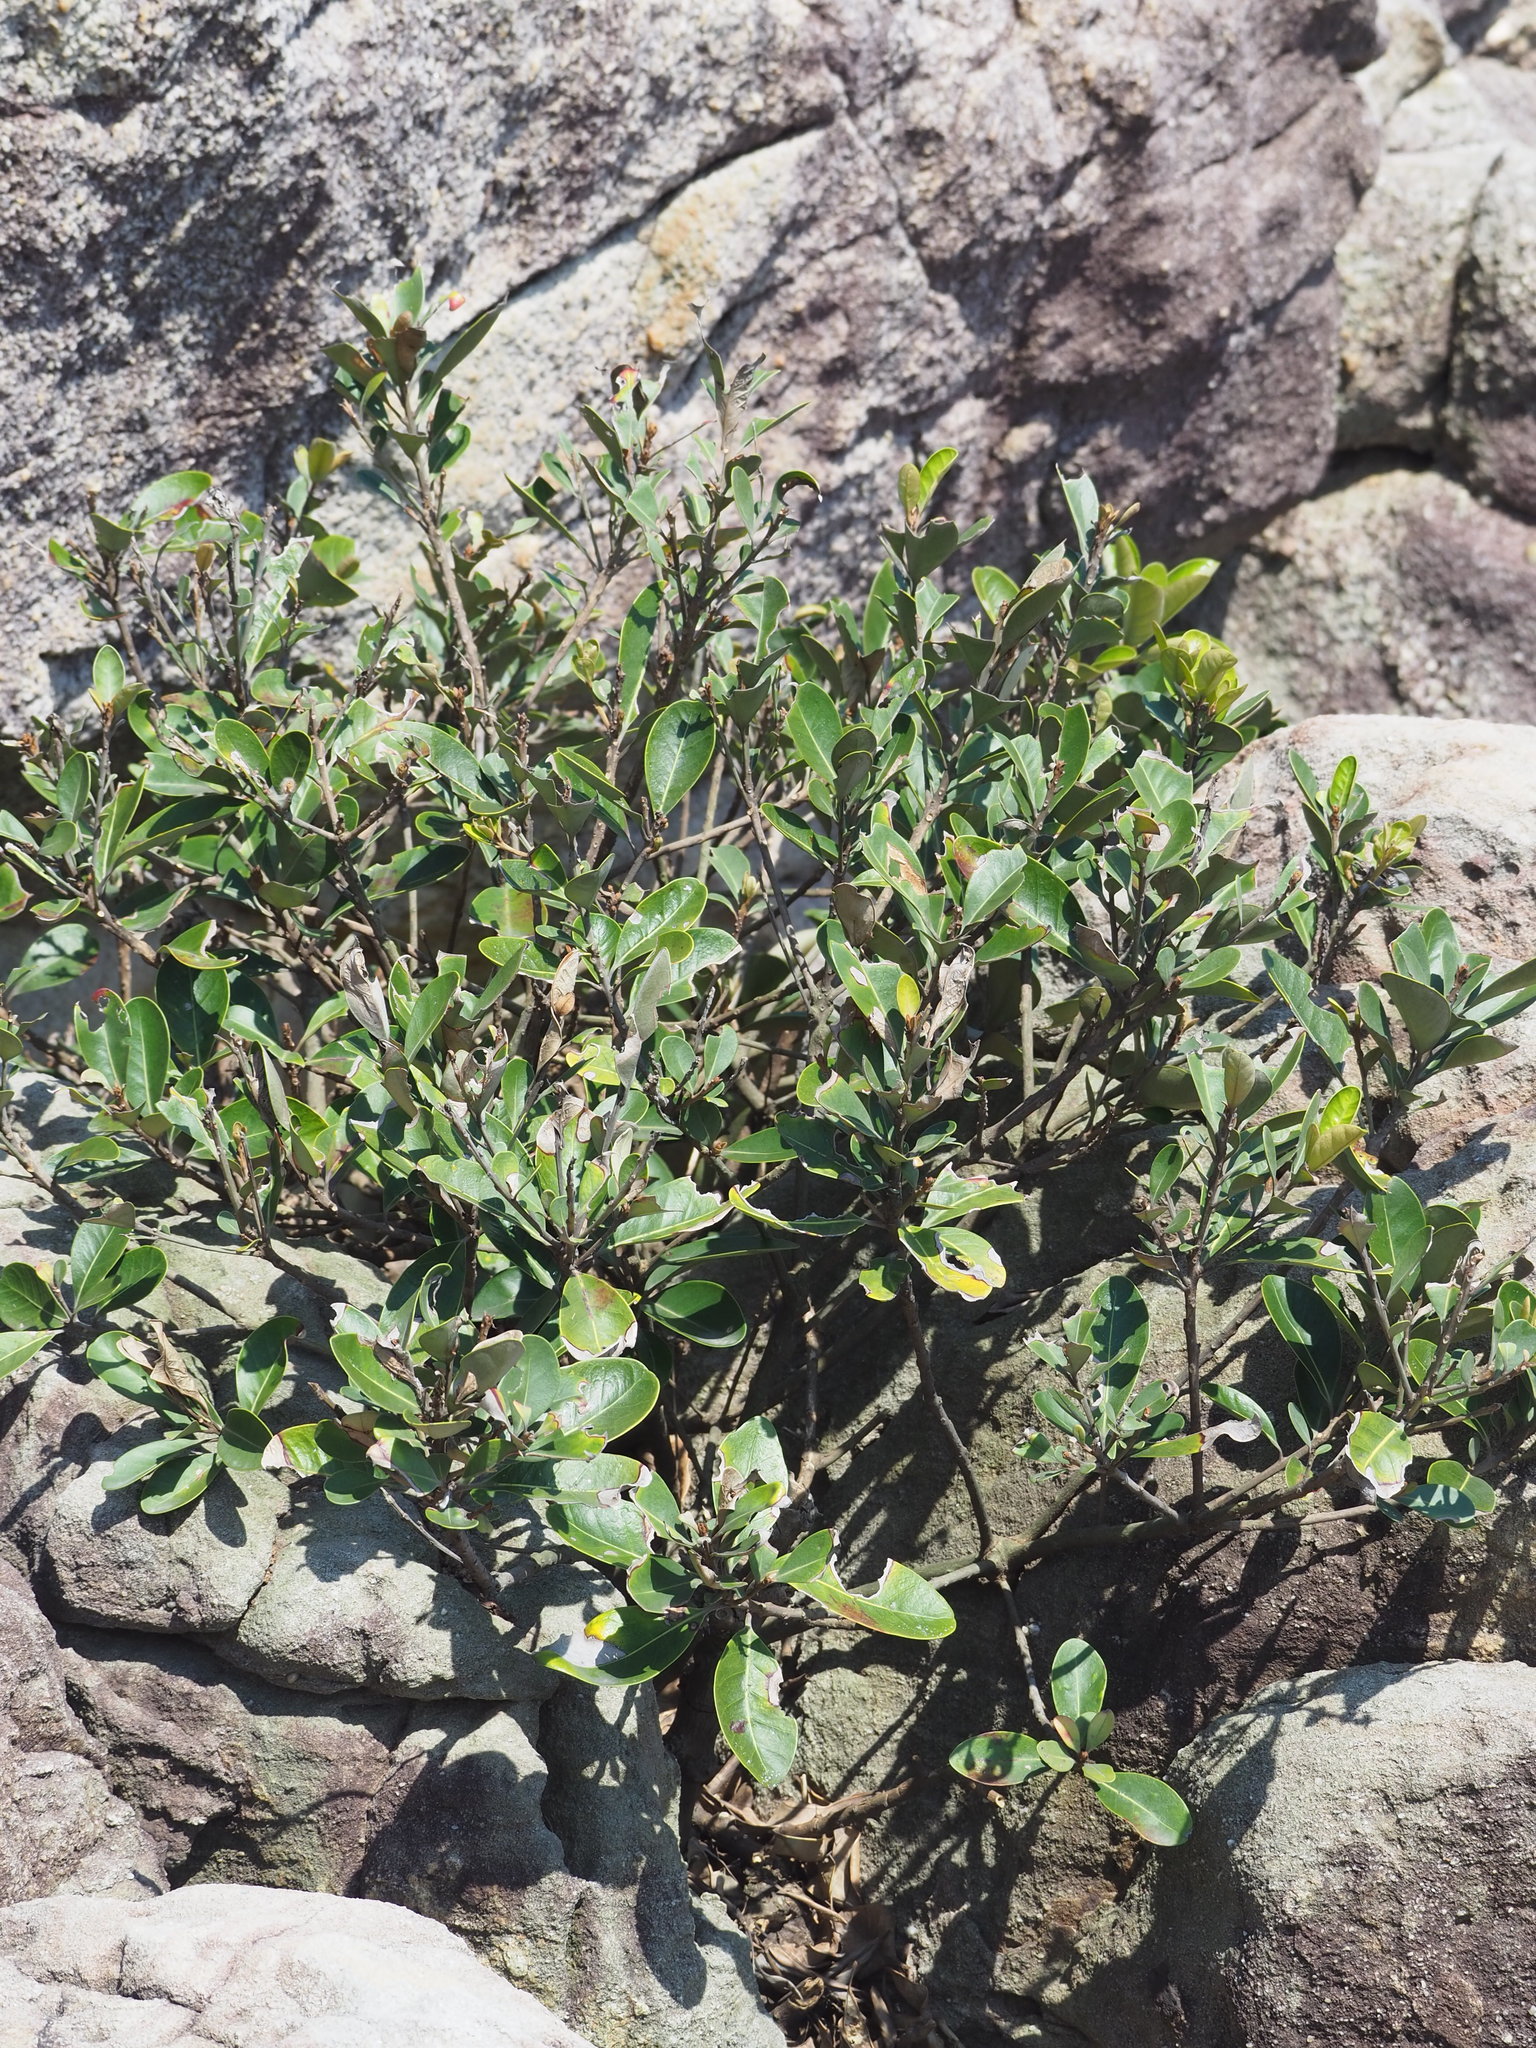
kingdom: Plantae
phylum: Tracheophyta
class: Magnoliopsida
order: Ericales
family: Sapotaceae
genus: Planchonella
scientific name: Planchonella obovata
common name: Black-ash
